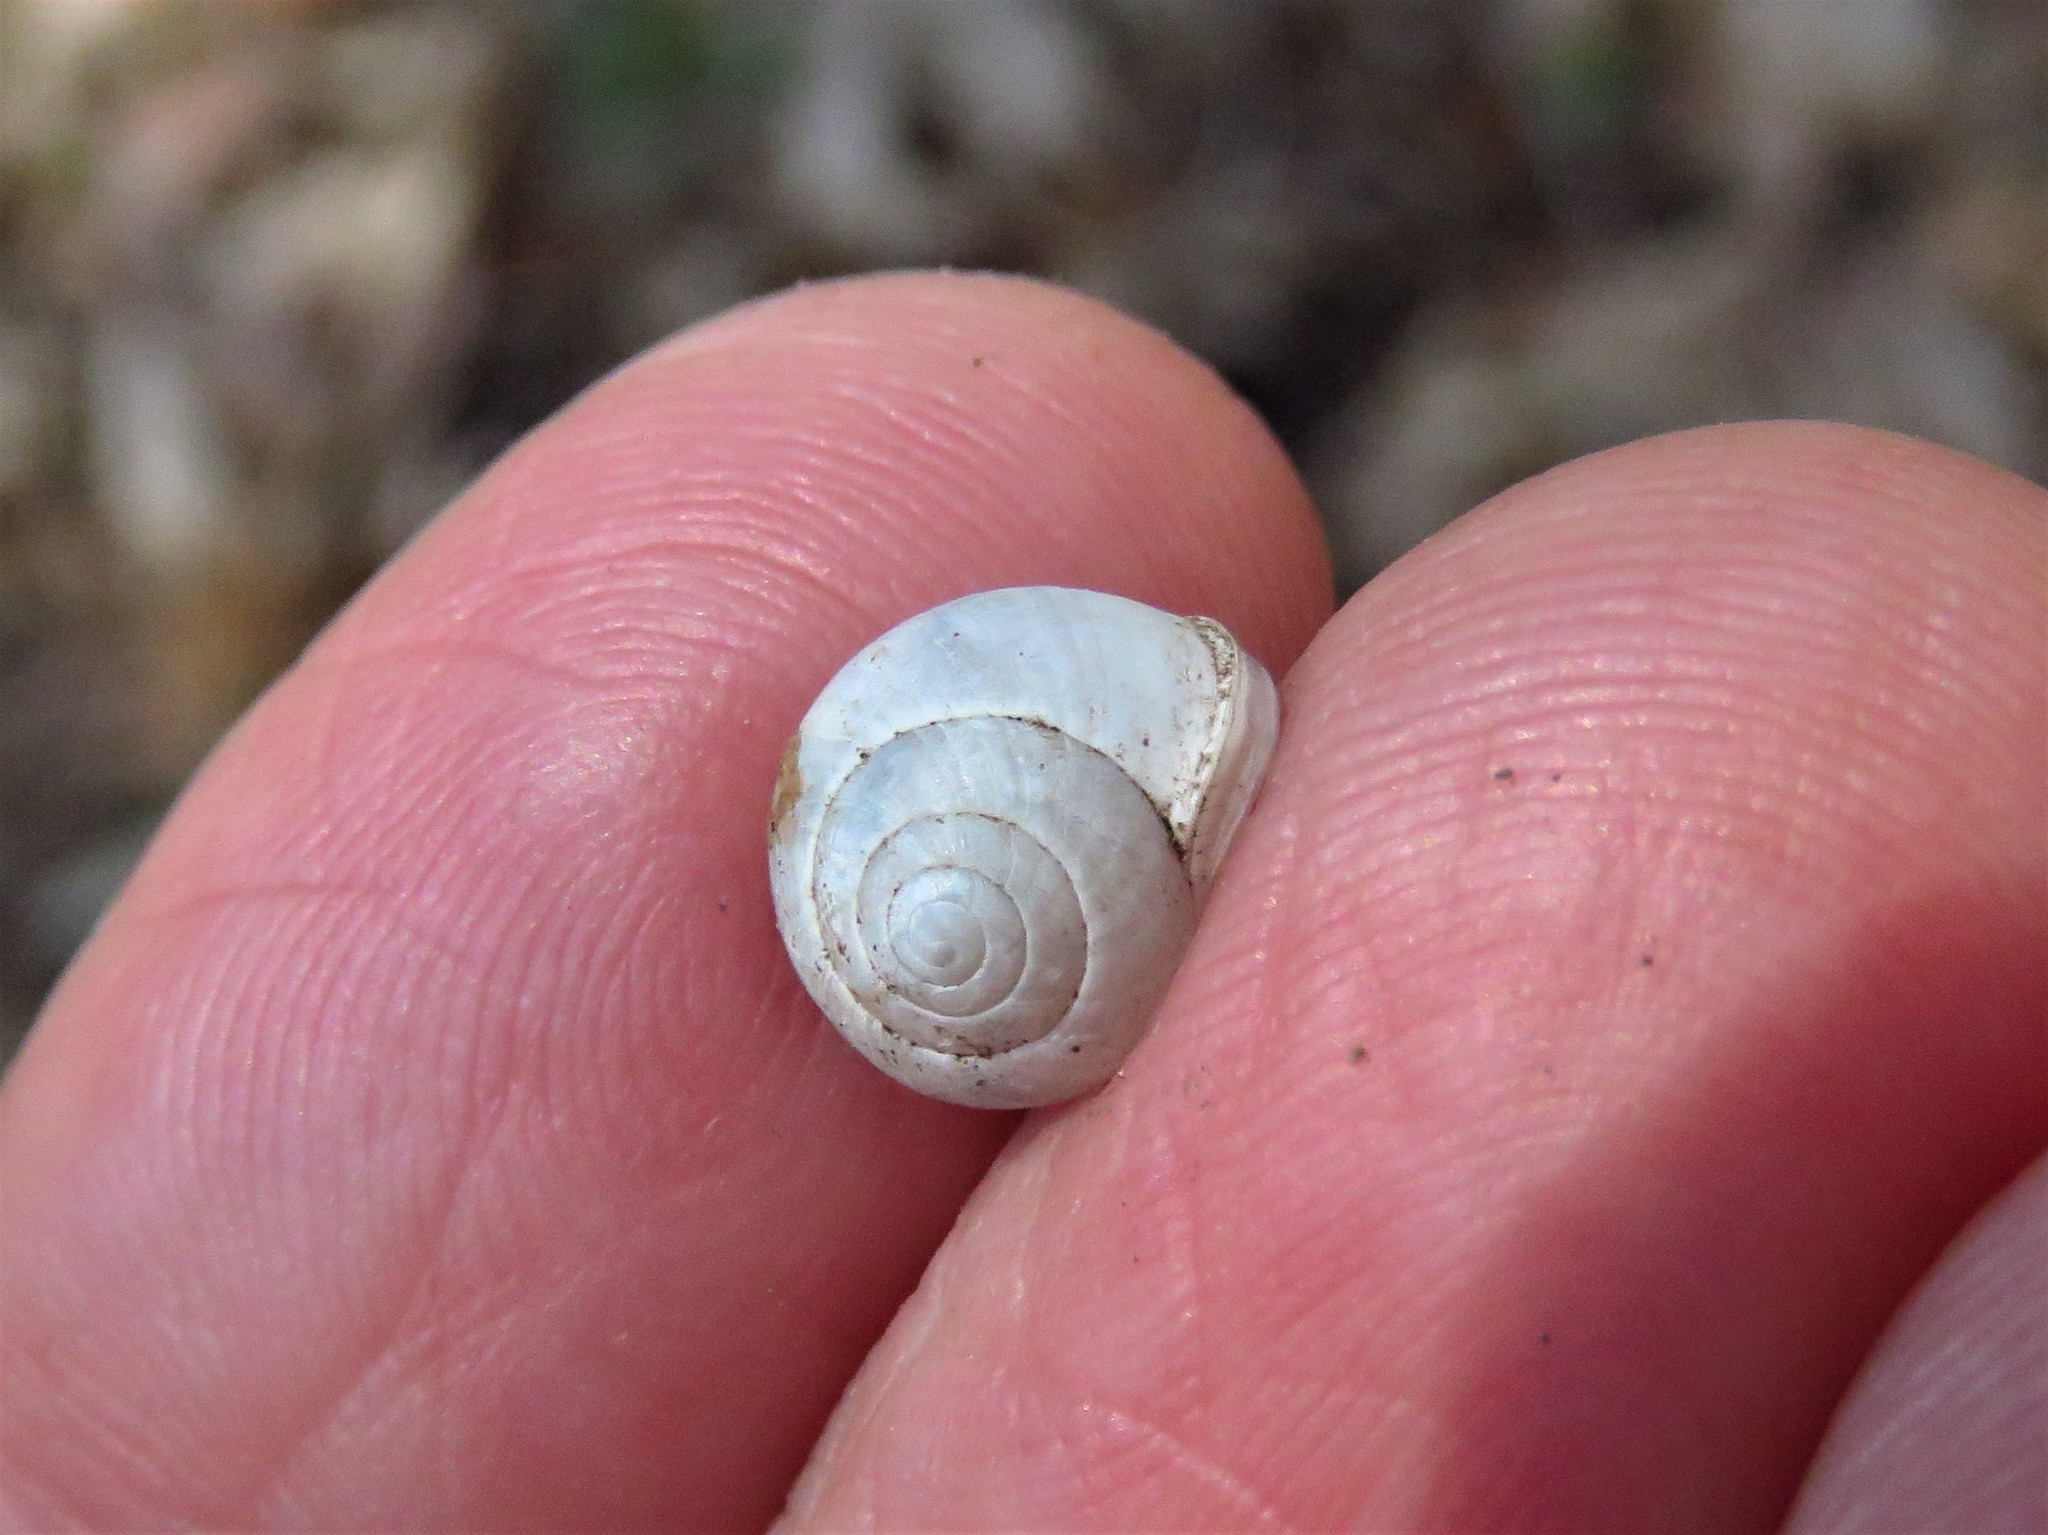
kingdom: Animalia
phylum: Mollusca
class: Gastropoda
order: Cycloneritida
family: Helicinidae
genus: Helicina
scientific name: Helicina orbiculata
